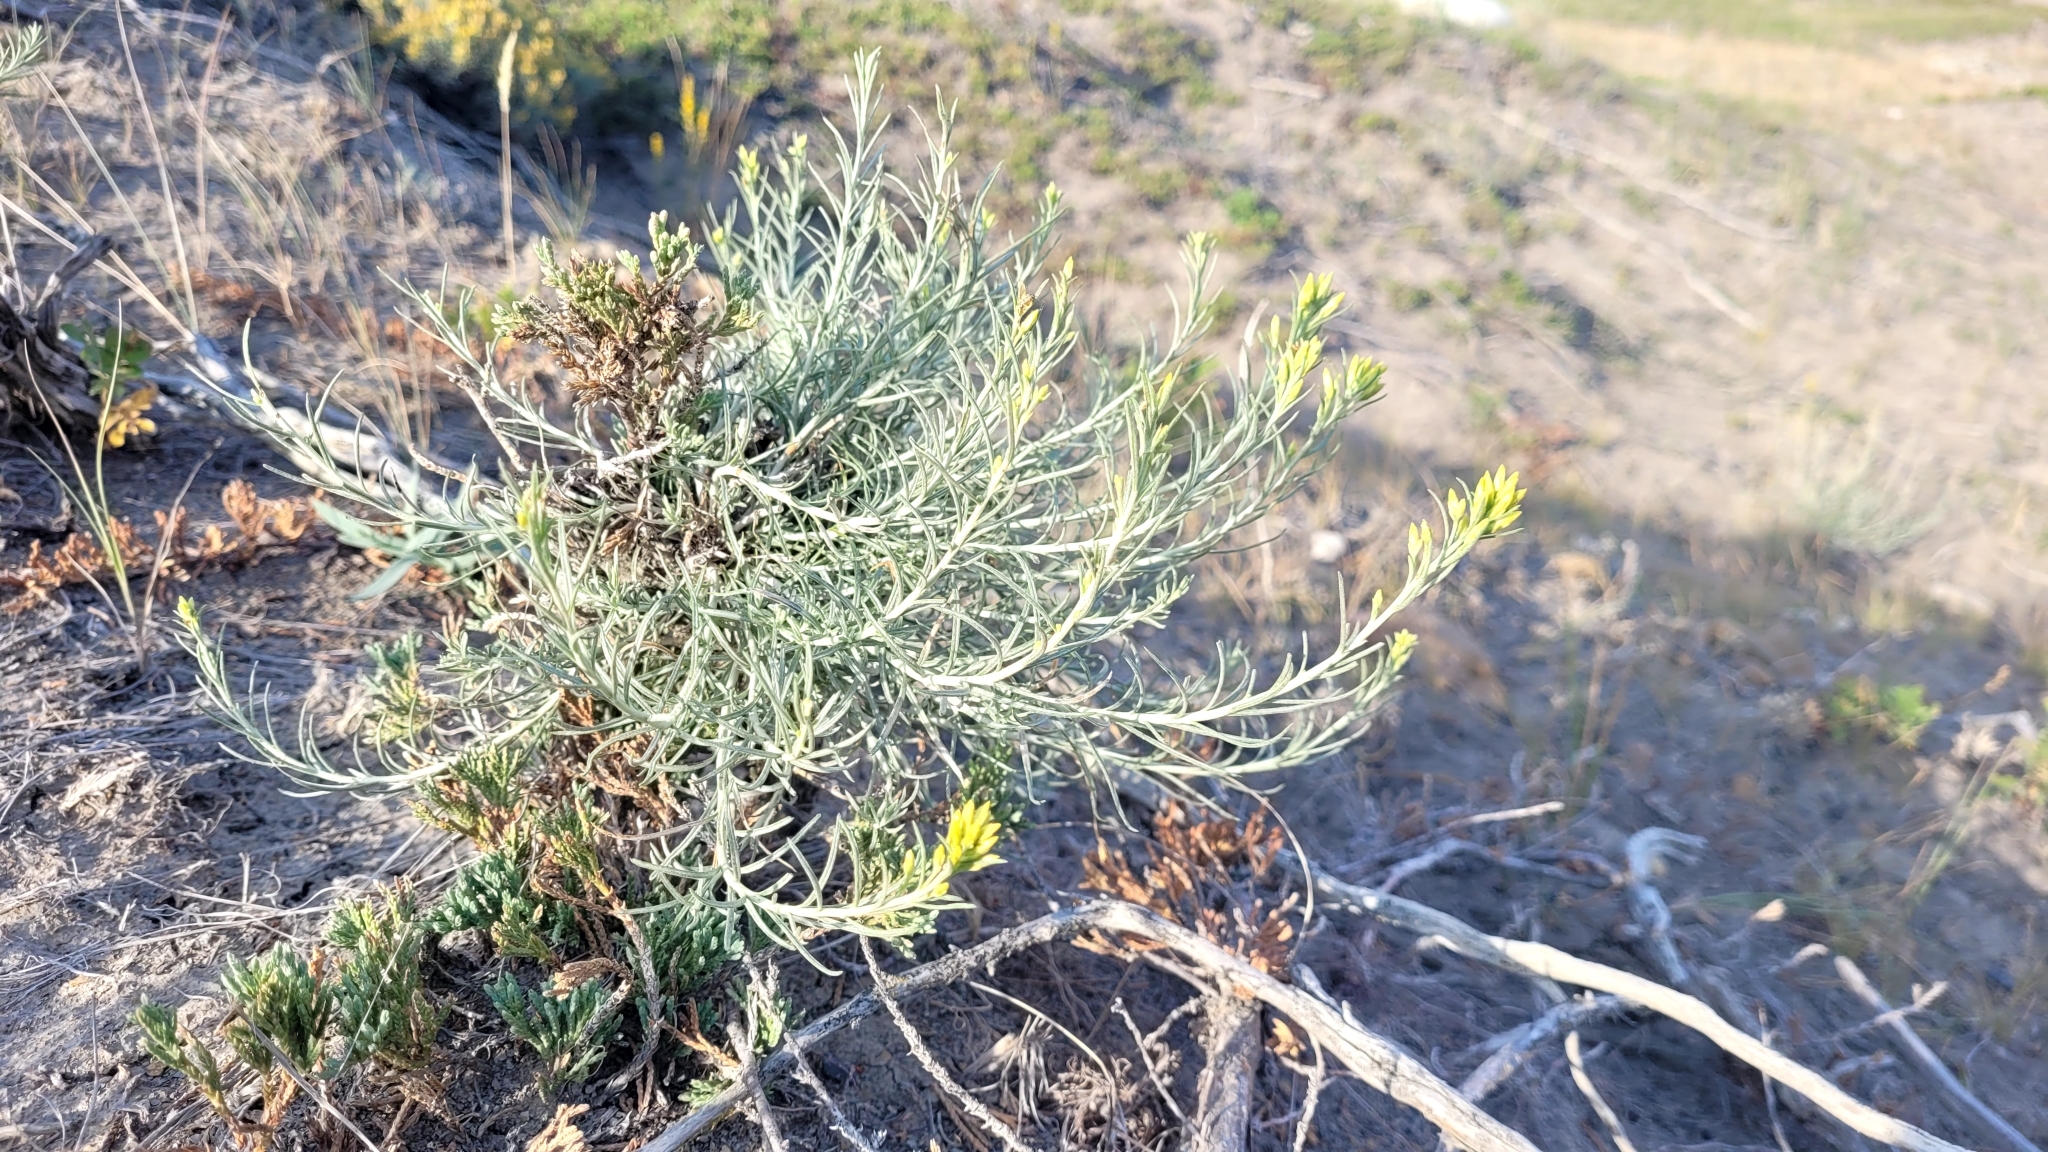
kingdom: Plantae
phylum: Tracheophyta
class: Magnoliopsida
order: Asterales
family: Asteraceae
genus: Ericameria
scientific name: Ericameria nauseosa
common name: Rubber rabbitbrush
